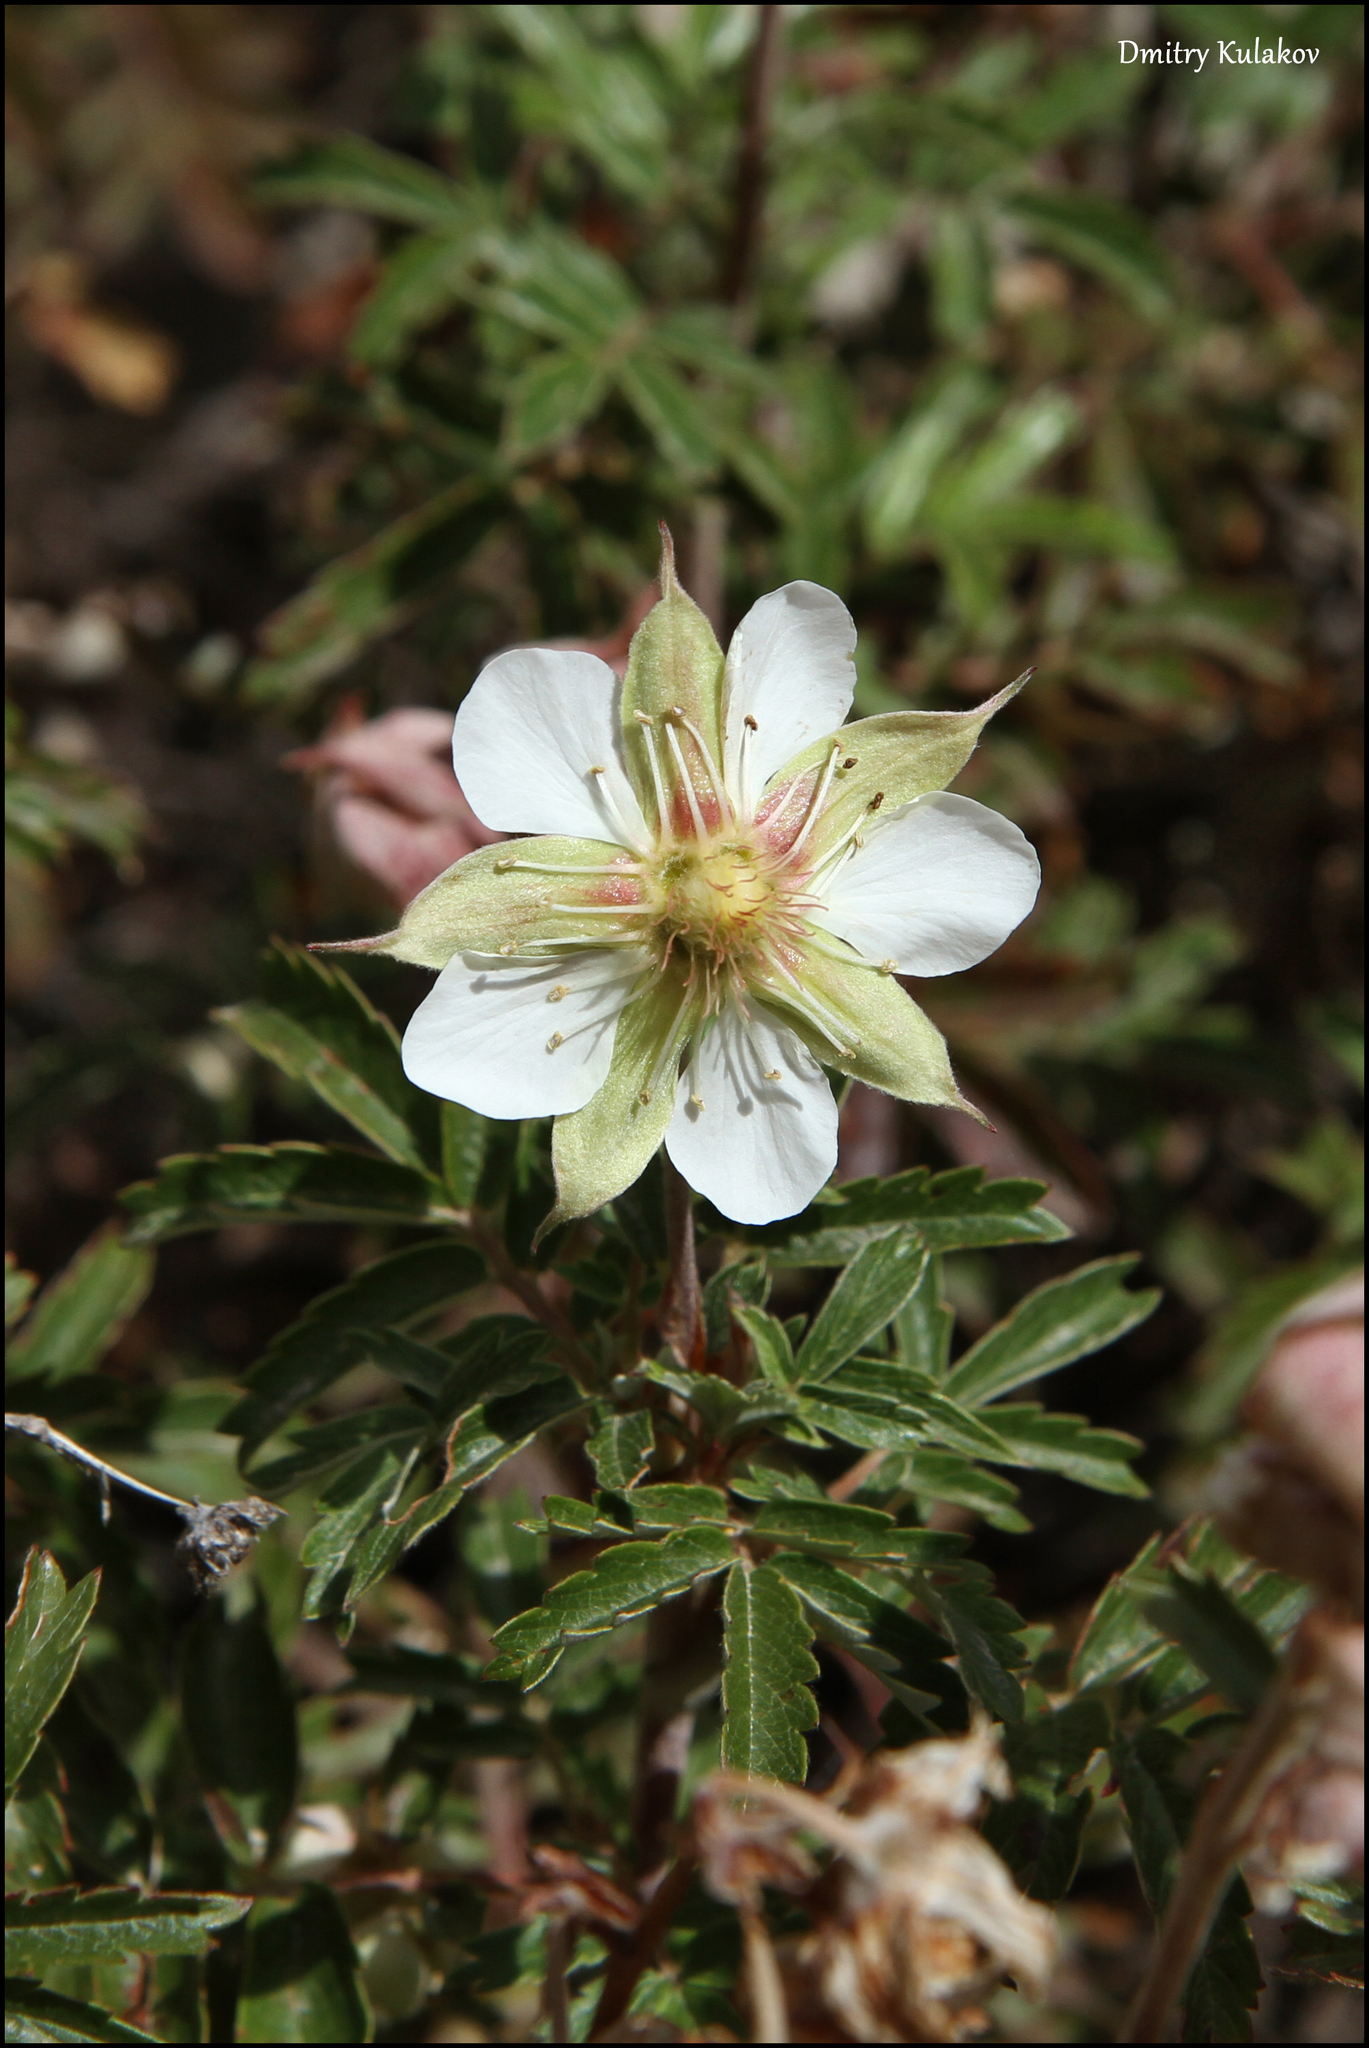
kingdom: Plantae
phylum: Tracheophyta
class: Magnoliopsida
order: Rosales
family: Rosaceae
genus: Farinopsis
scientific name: Farinopsis salesoviana
